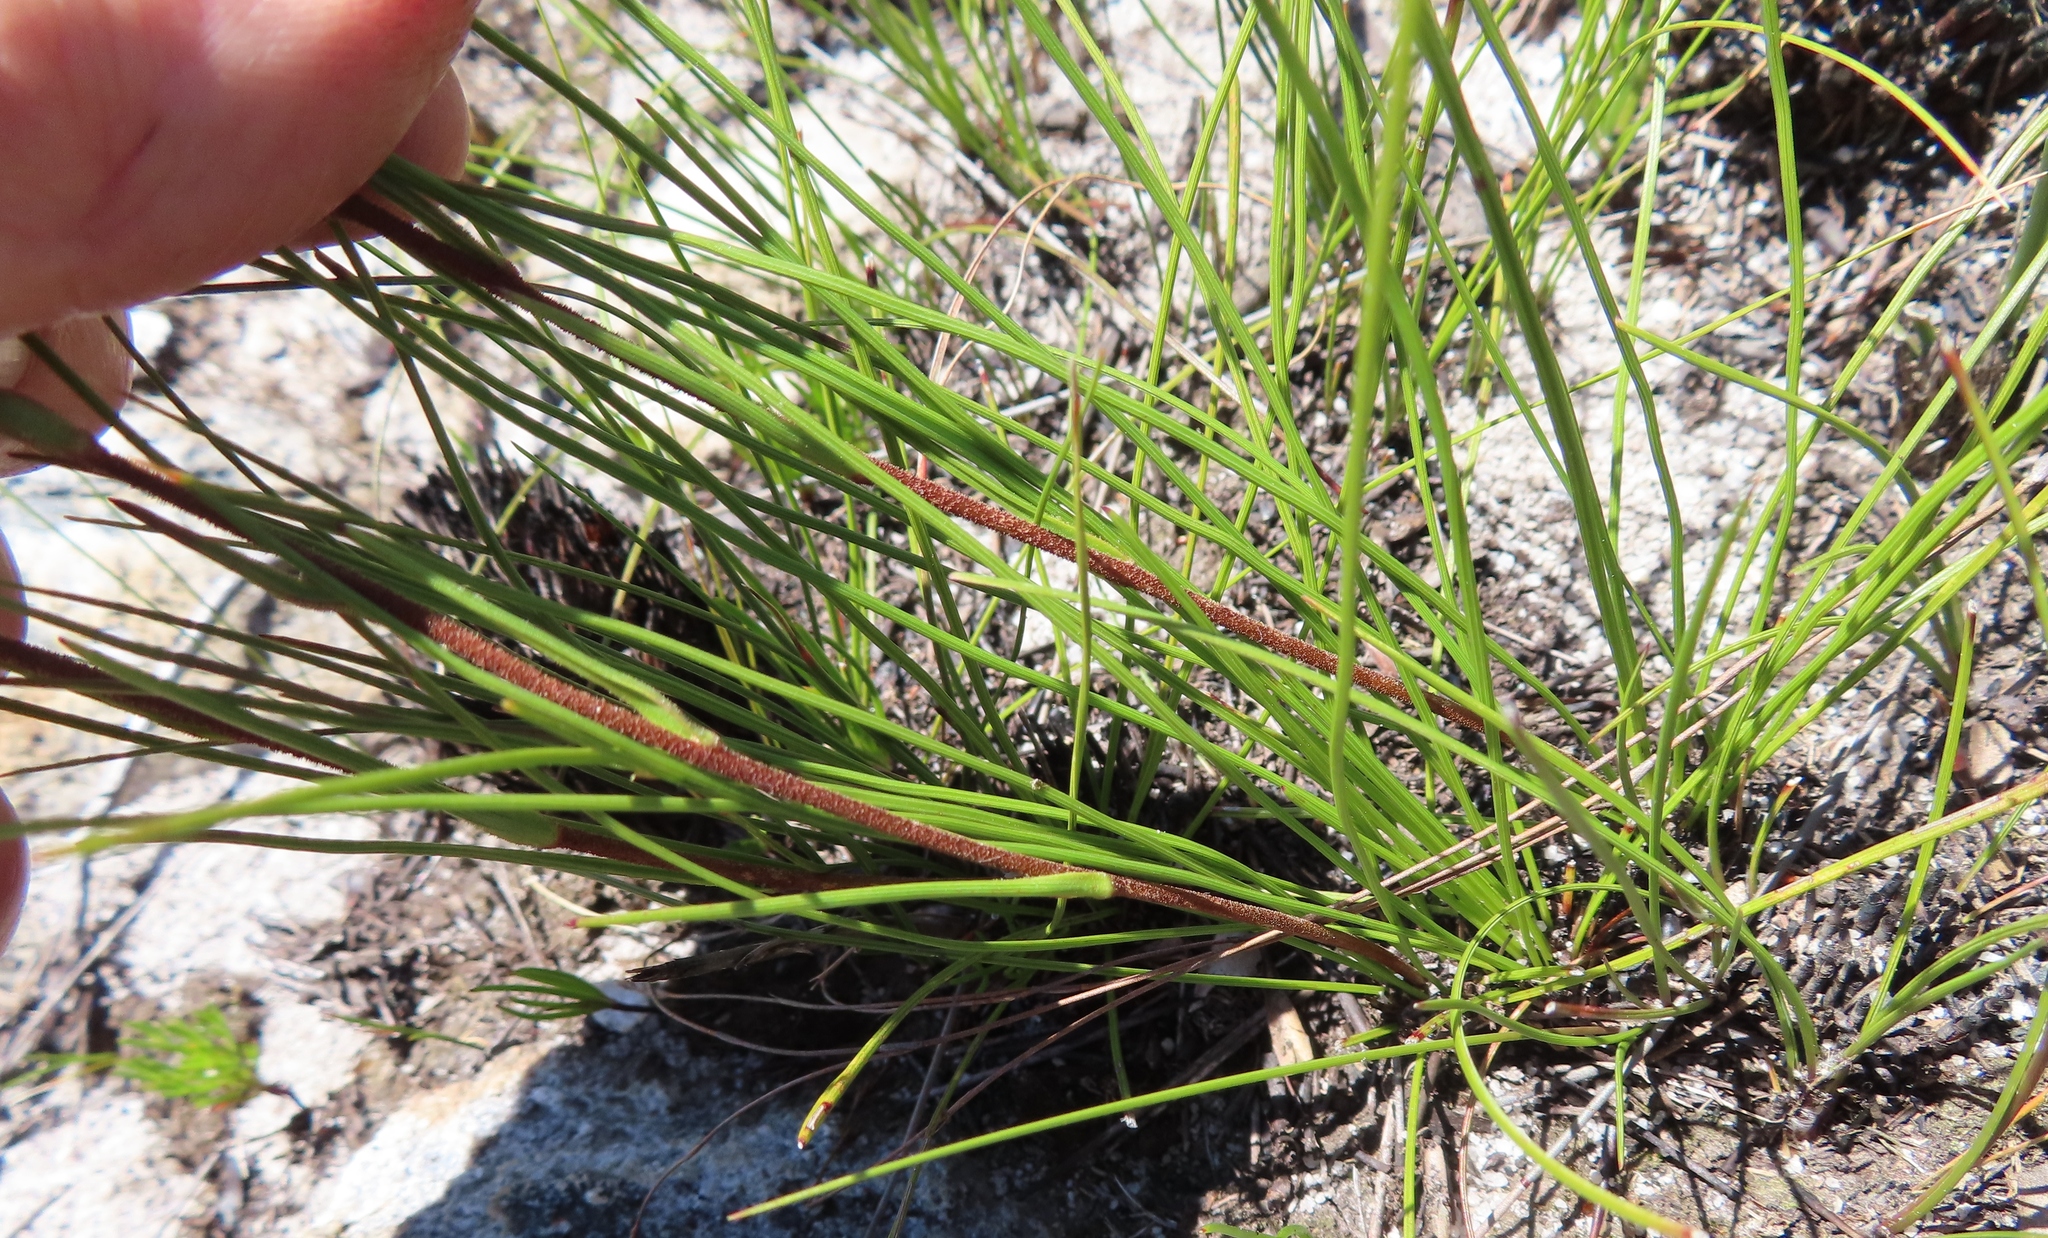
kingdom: Plantae
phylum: Tracheophyta
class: Magnoliopsida
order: Asterales
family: Asteraceae
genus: Corymbium
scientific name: Corymbium africanum
